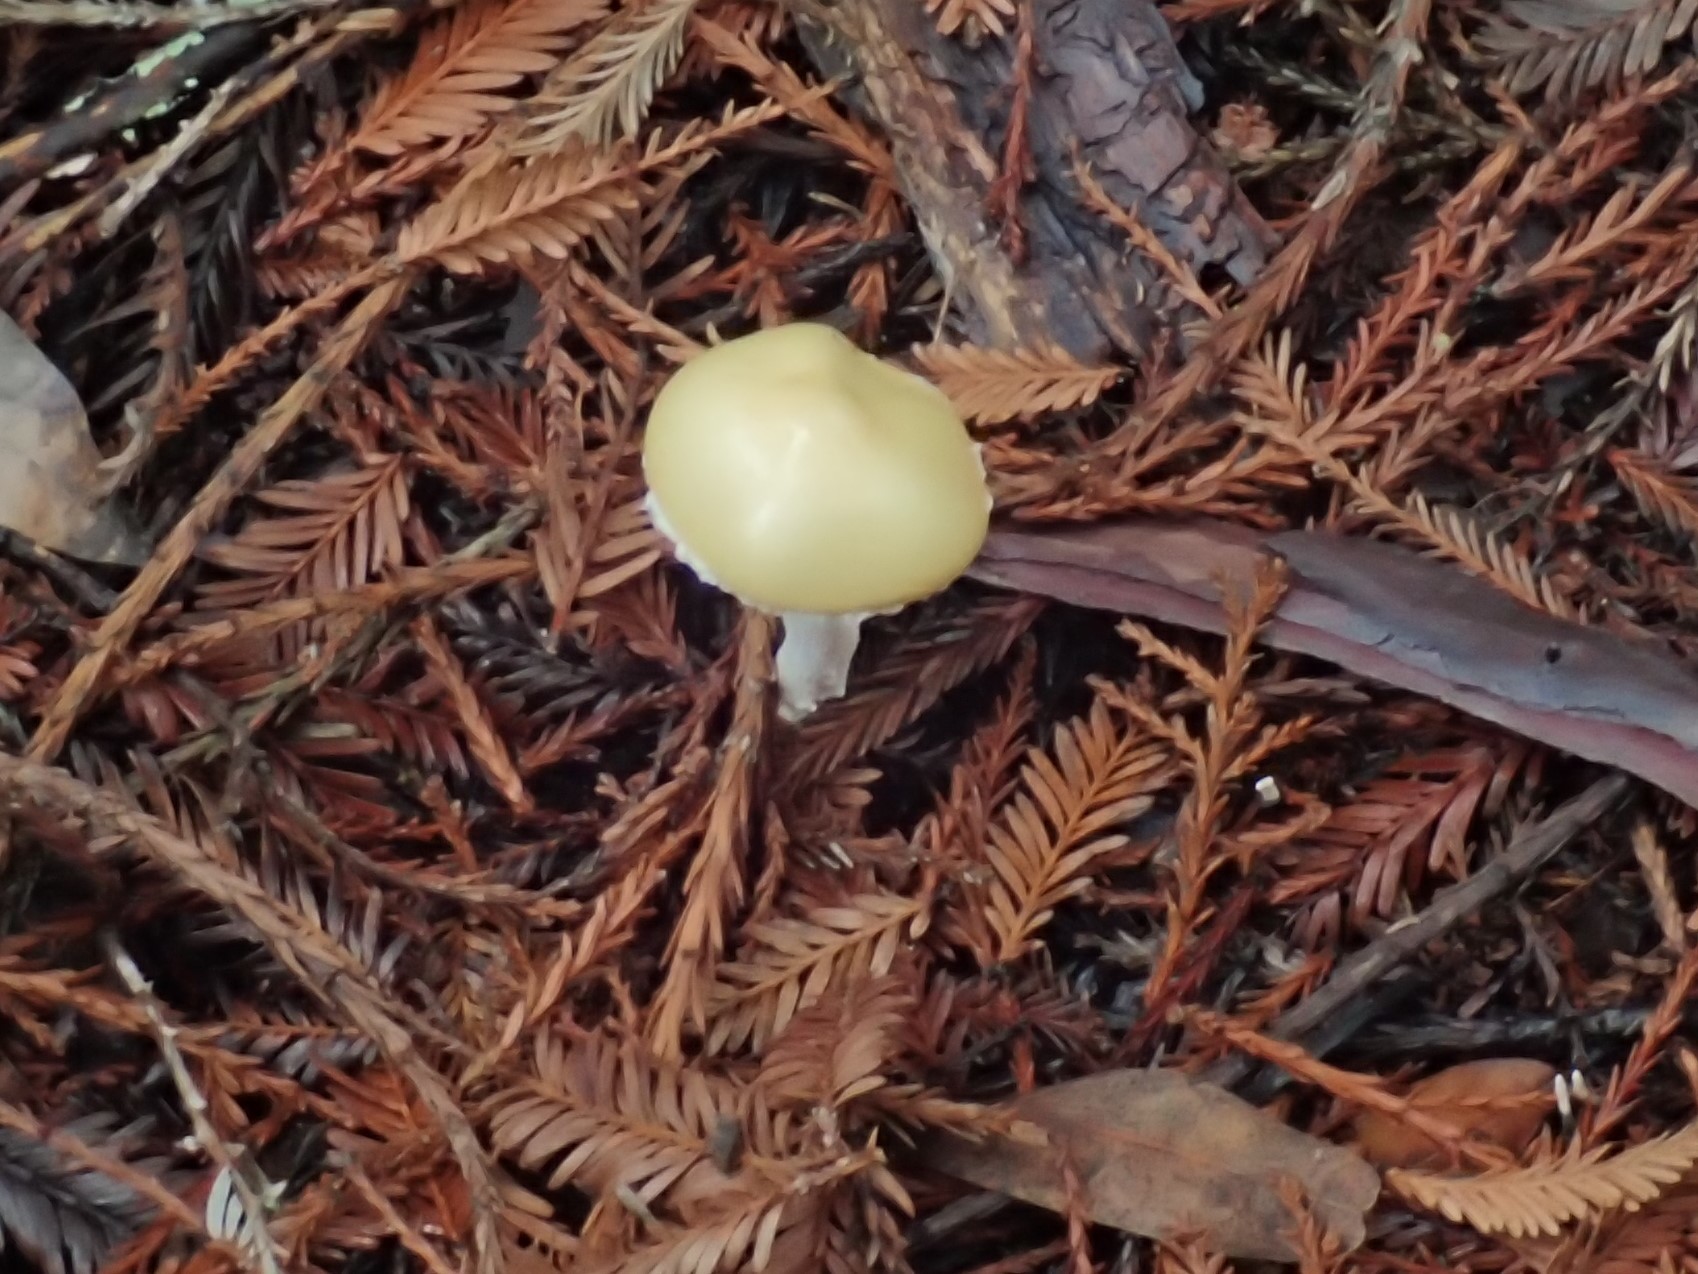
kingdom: Fungi
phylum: Basidiomycota
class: Agaricomycetes
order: Agaricales
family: Strophariaceae
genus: Stropharia
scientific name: Stropharia ambigua
